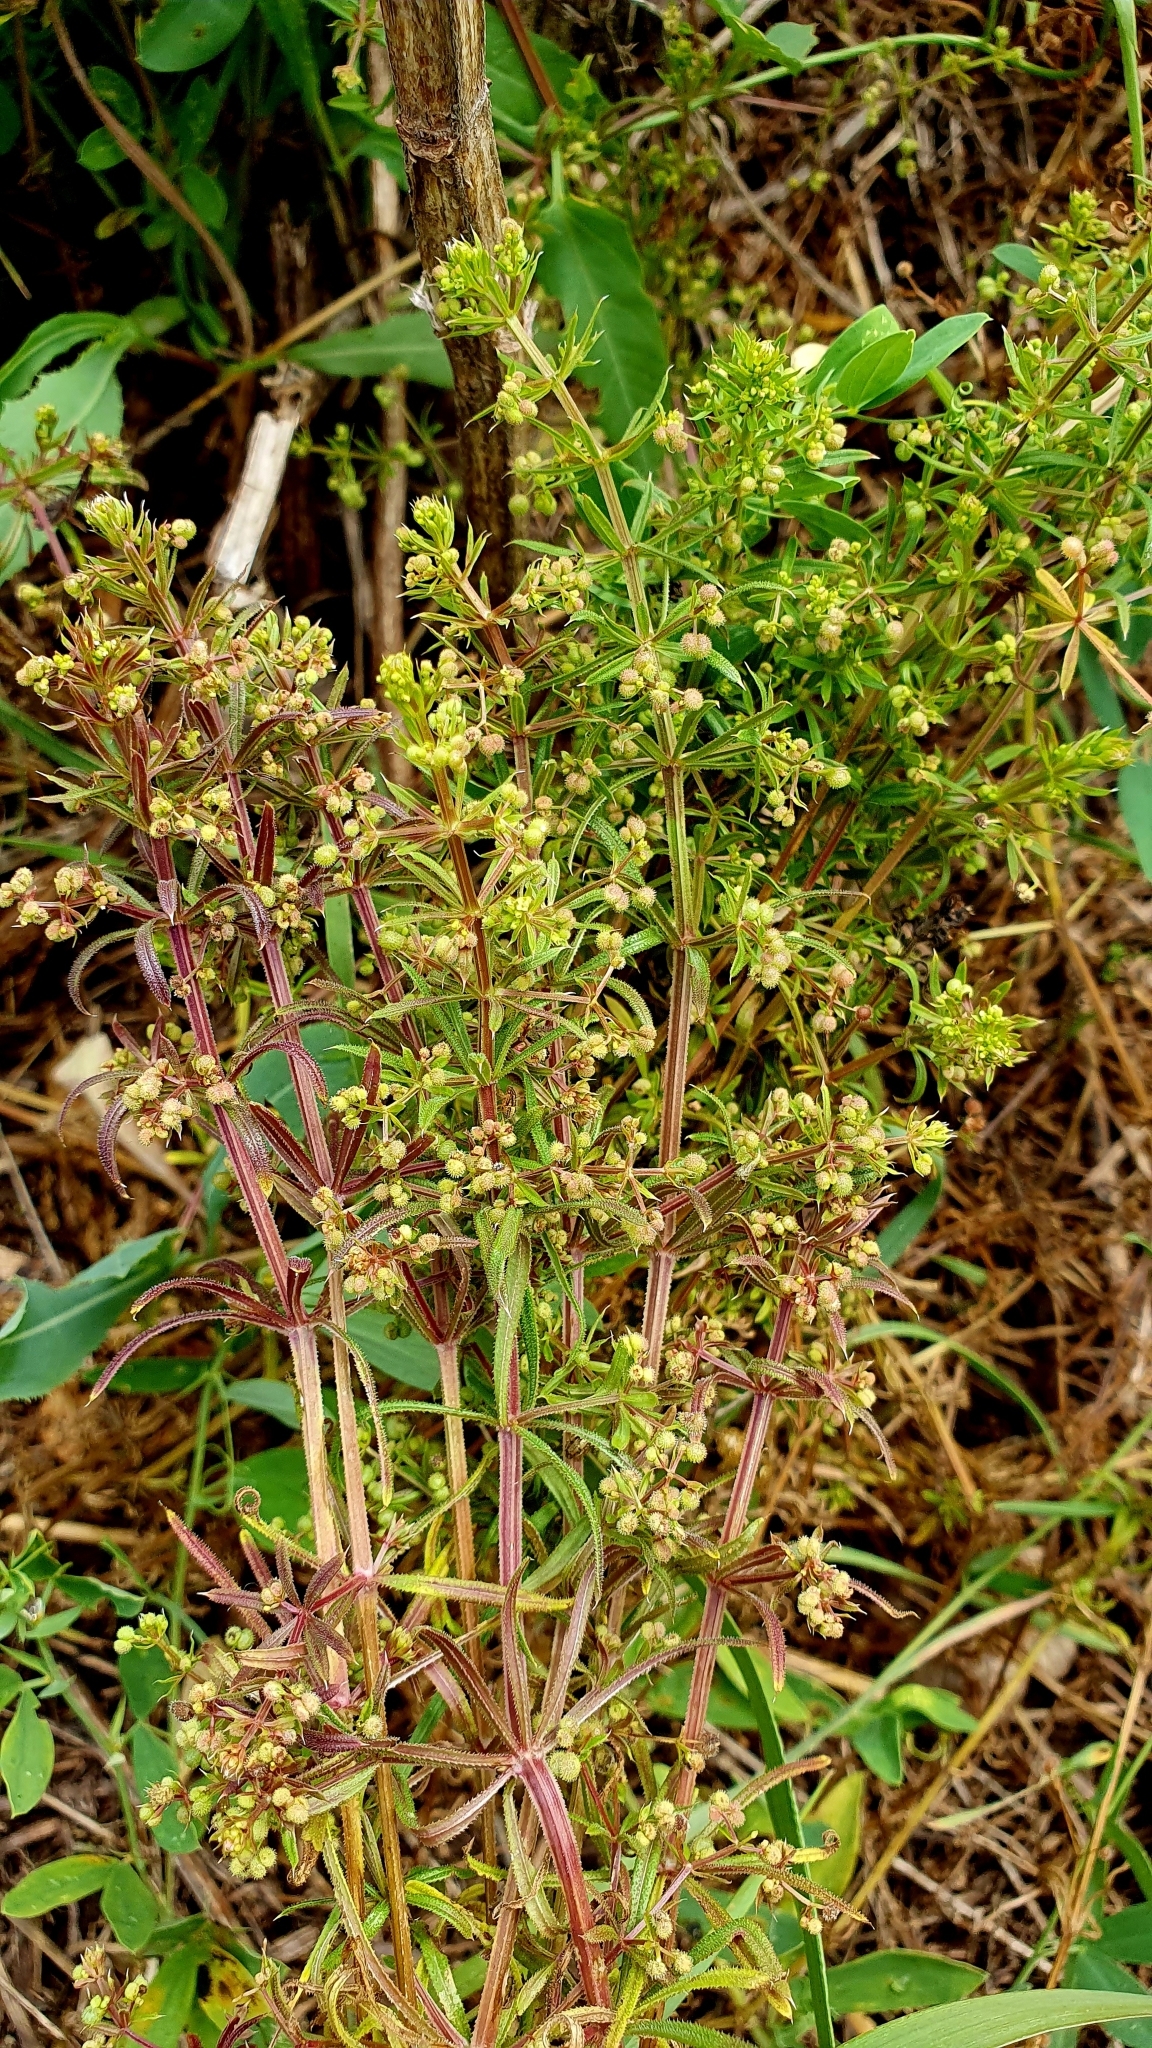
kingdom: Plantae
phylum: Tracheophyta
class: Magnoliopsida
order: Gentianales
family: Rubiaceae
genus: Galium
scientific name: Galium
